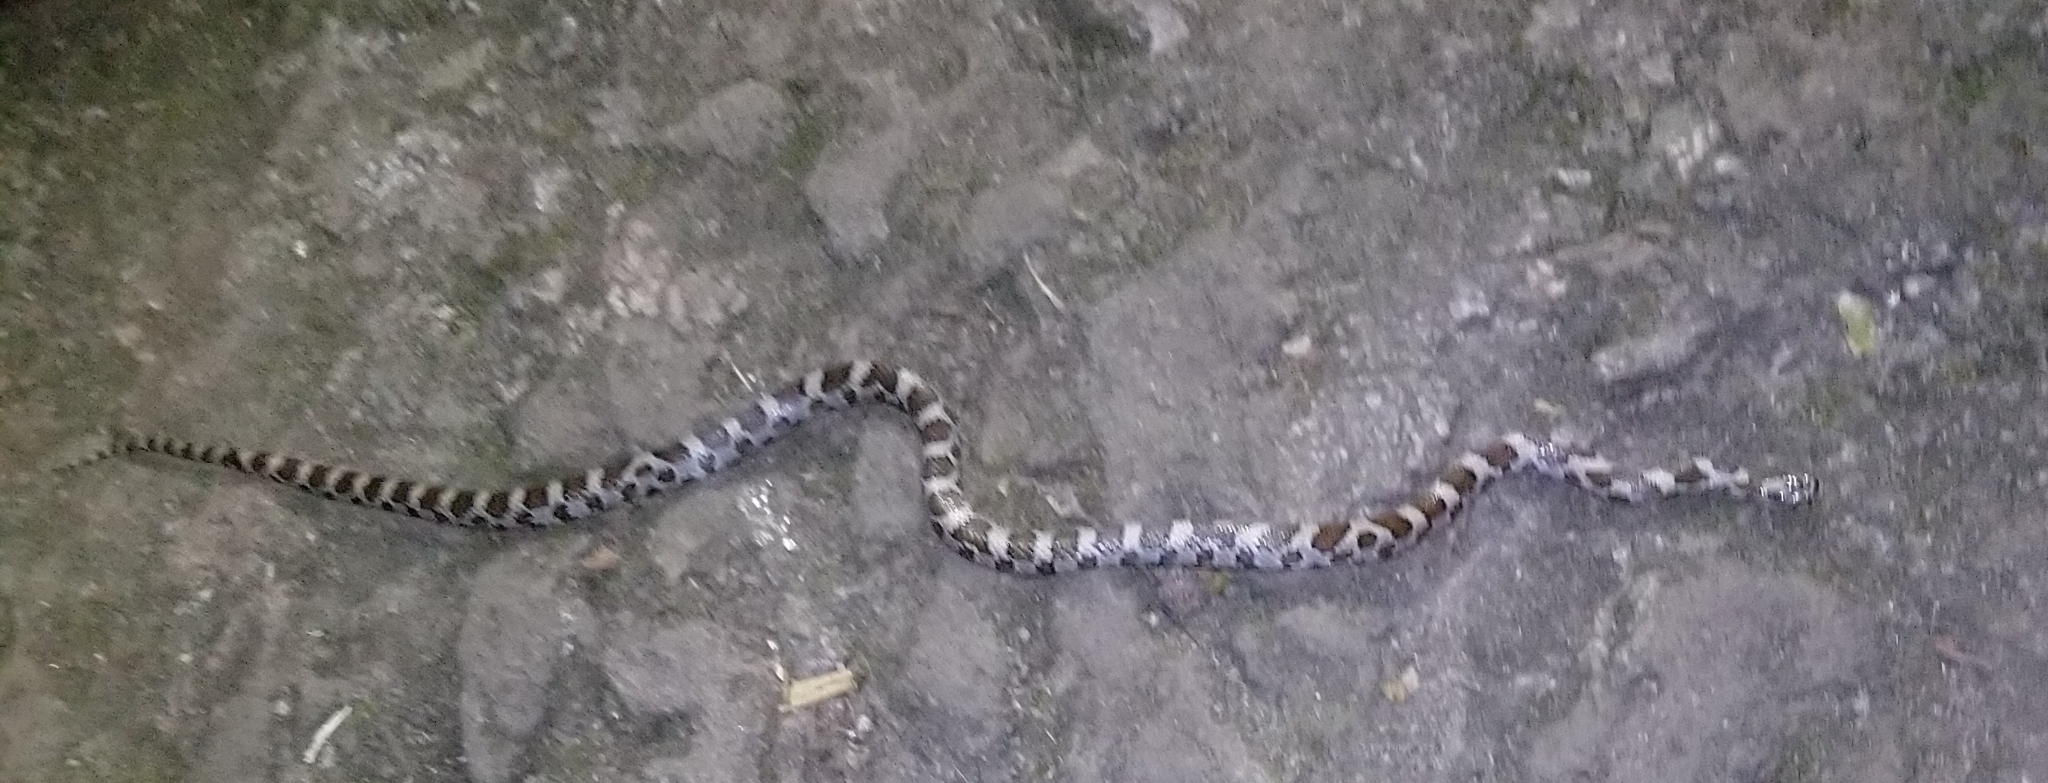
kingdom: Animalia
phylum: Chordata
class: Squamata
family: Colubridae
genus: Lampropeltis
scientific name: Lampropeltis triangulum
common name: Eastern milksnake
